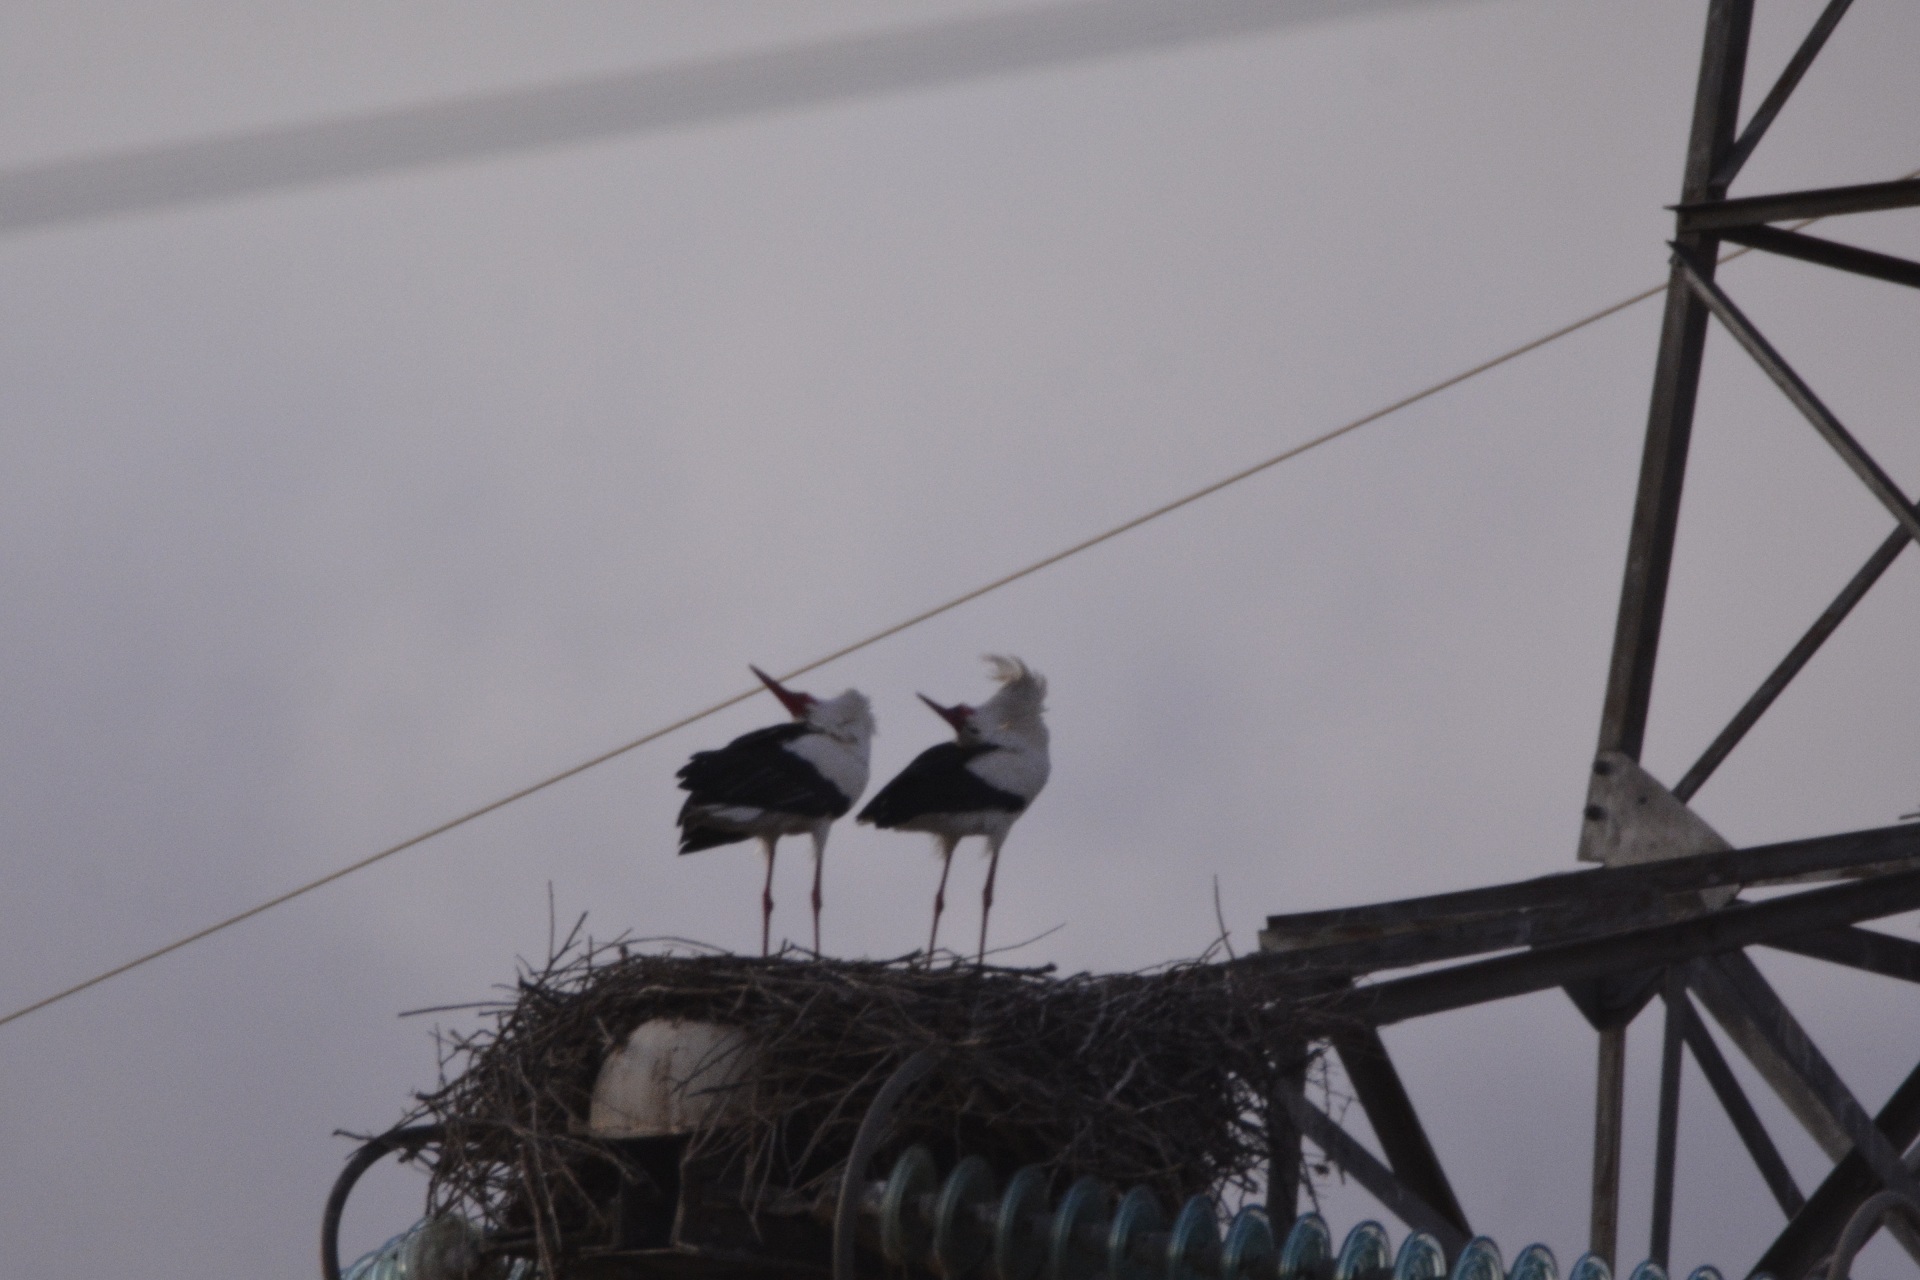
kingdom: Animalia
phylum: Chordata
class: Aves
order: Ciconiiformes
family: Ciconiidae
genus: Ciconia
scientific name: Ciconia ciconia
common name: White stork
